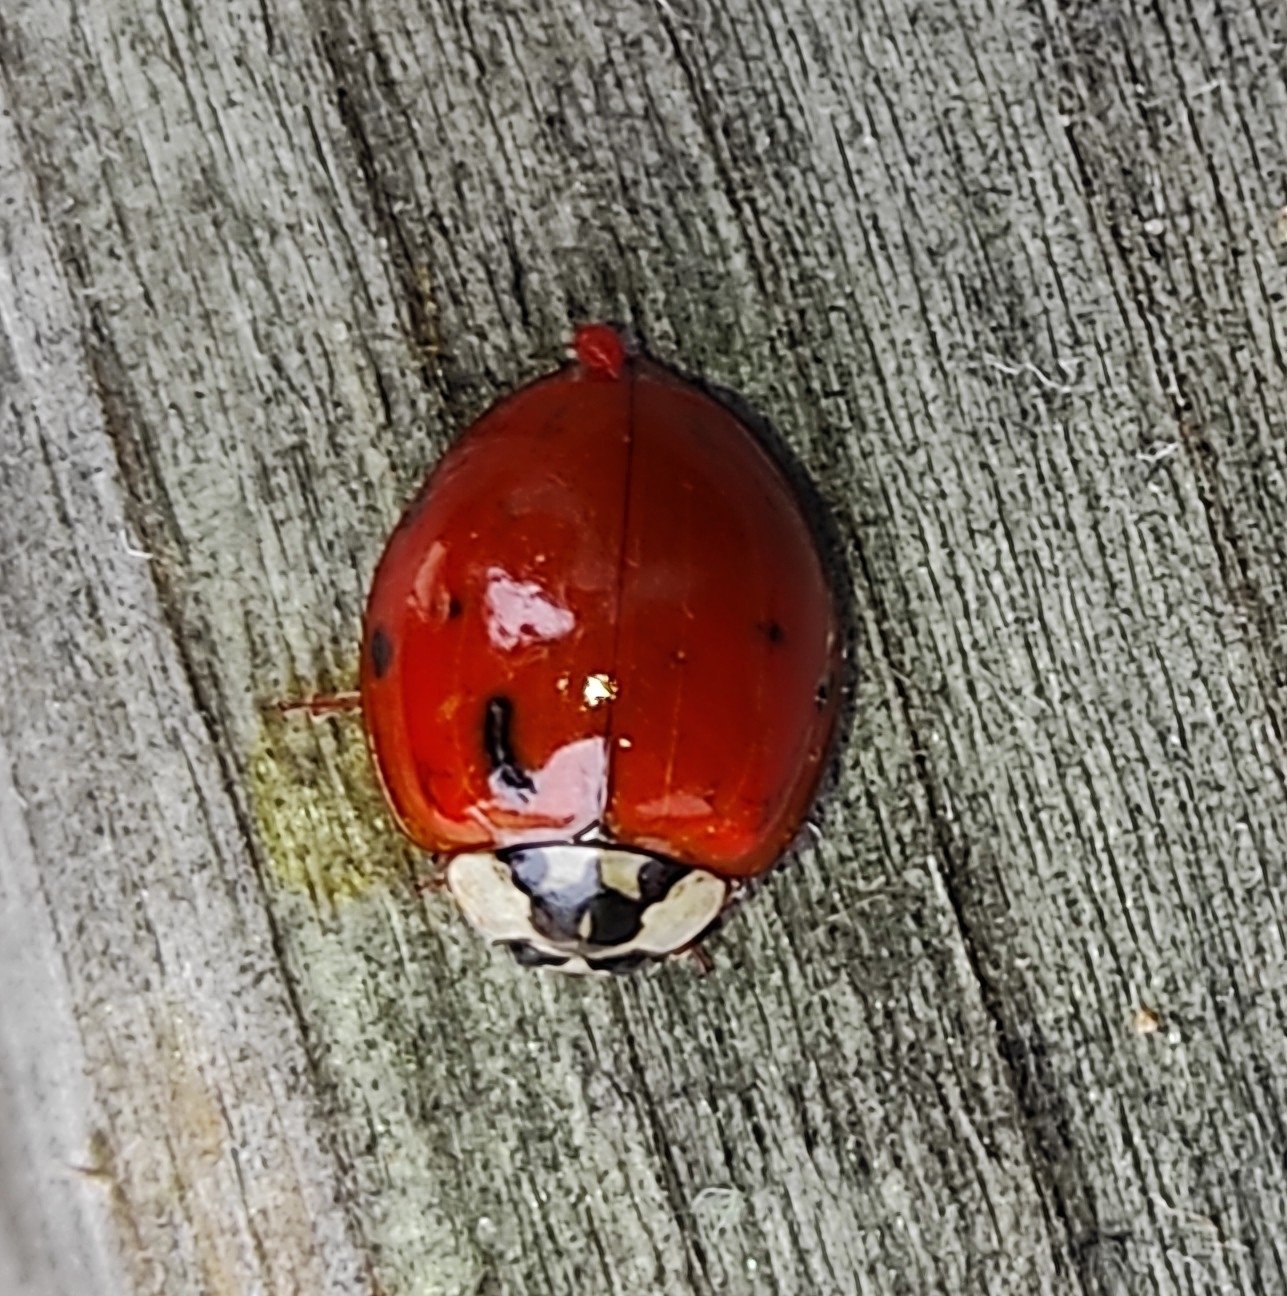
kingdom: Animalia
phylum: Arthropoda
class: Insecta
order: Coleoptera
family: Coccinellidae
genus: Harmonia
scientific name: Harmonia axyridis
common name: Harlequin ladybird
